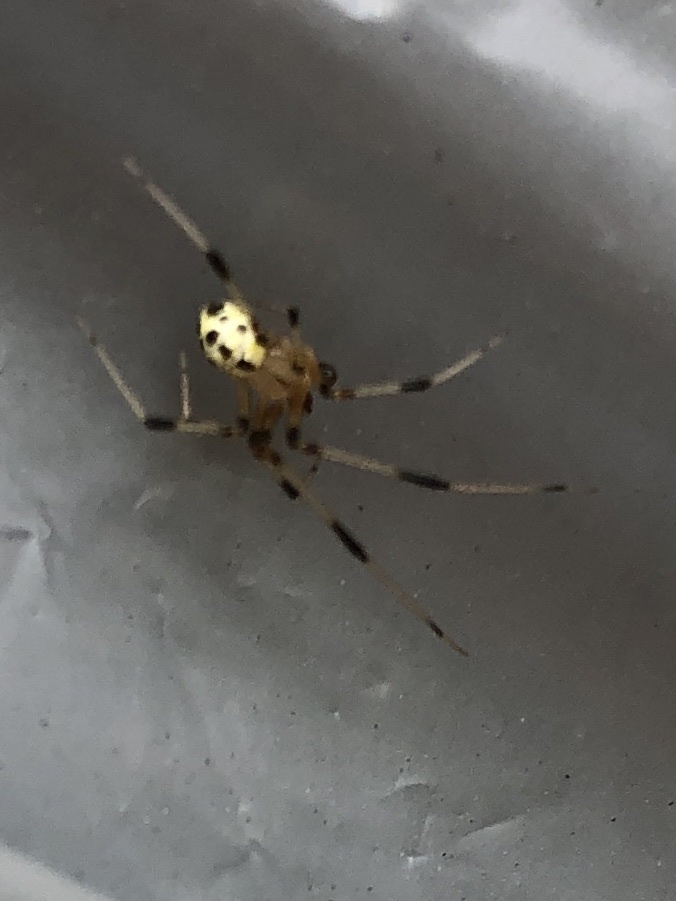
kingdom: Animalia
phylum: Arthropoda
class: Arachnida
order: Araneae
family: Theridiidae
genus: Heterotheridion
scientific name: Heterotheridion nigrovariegatum
